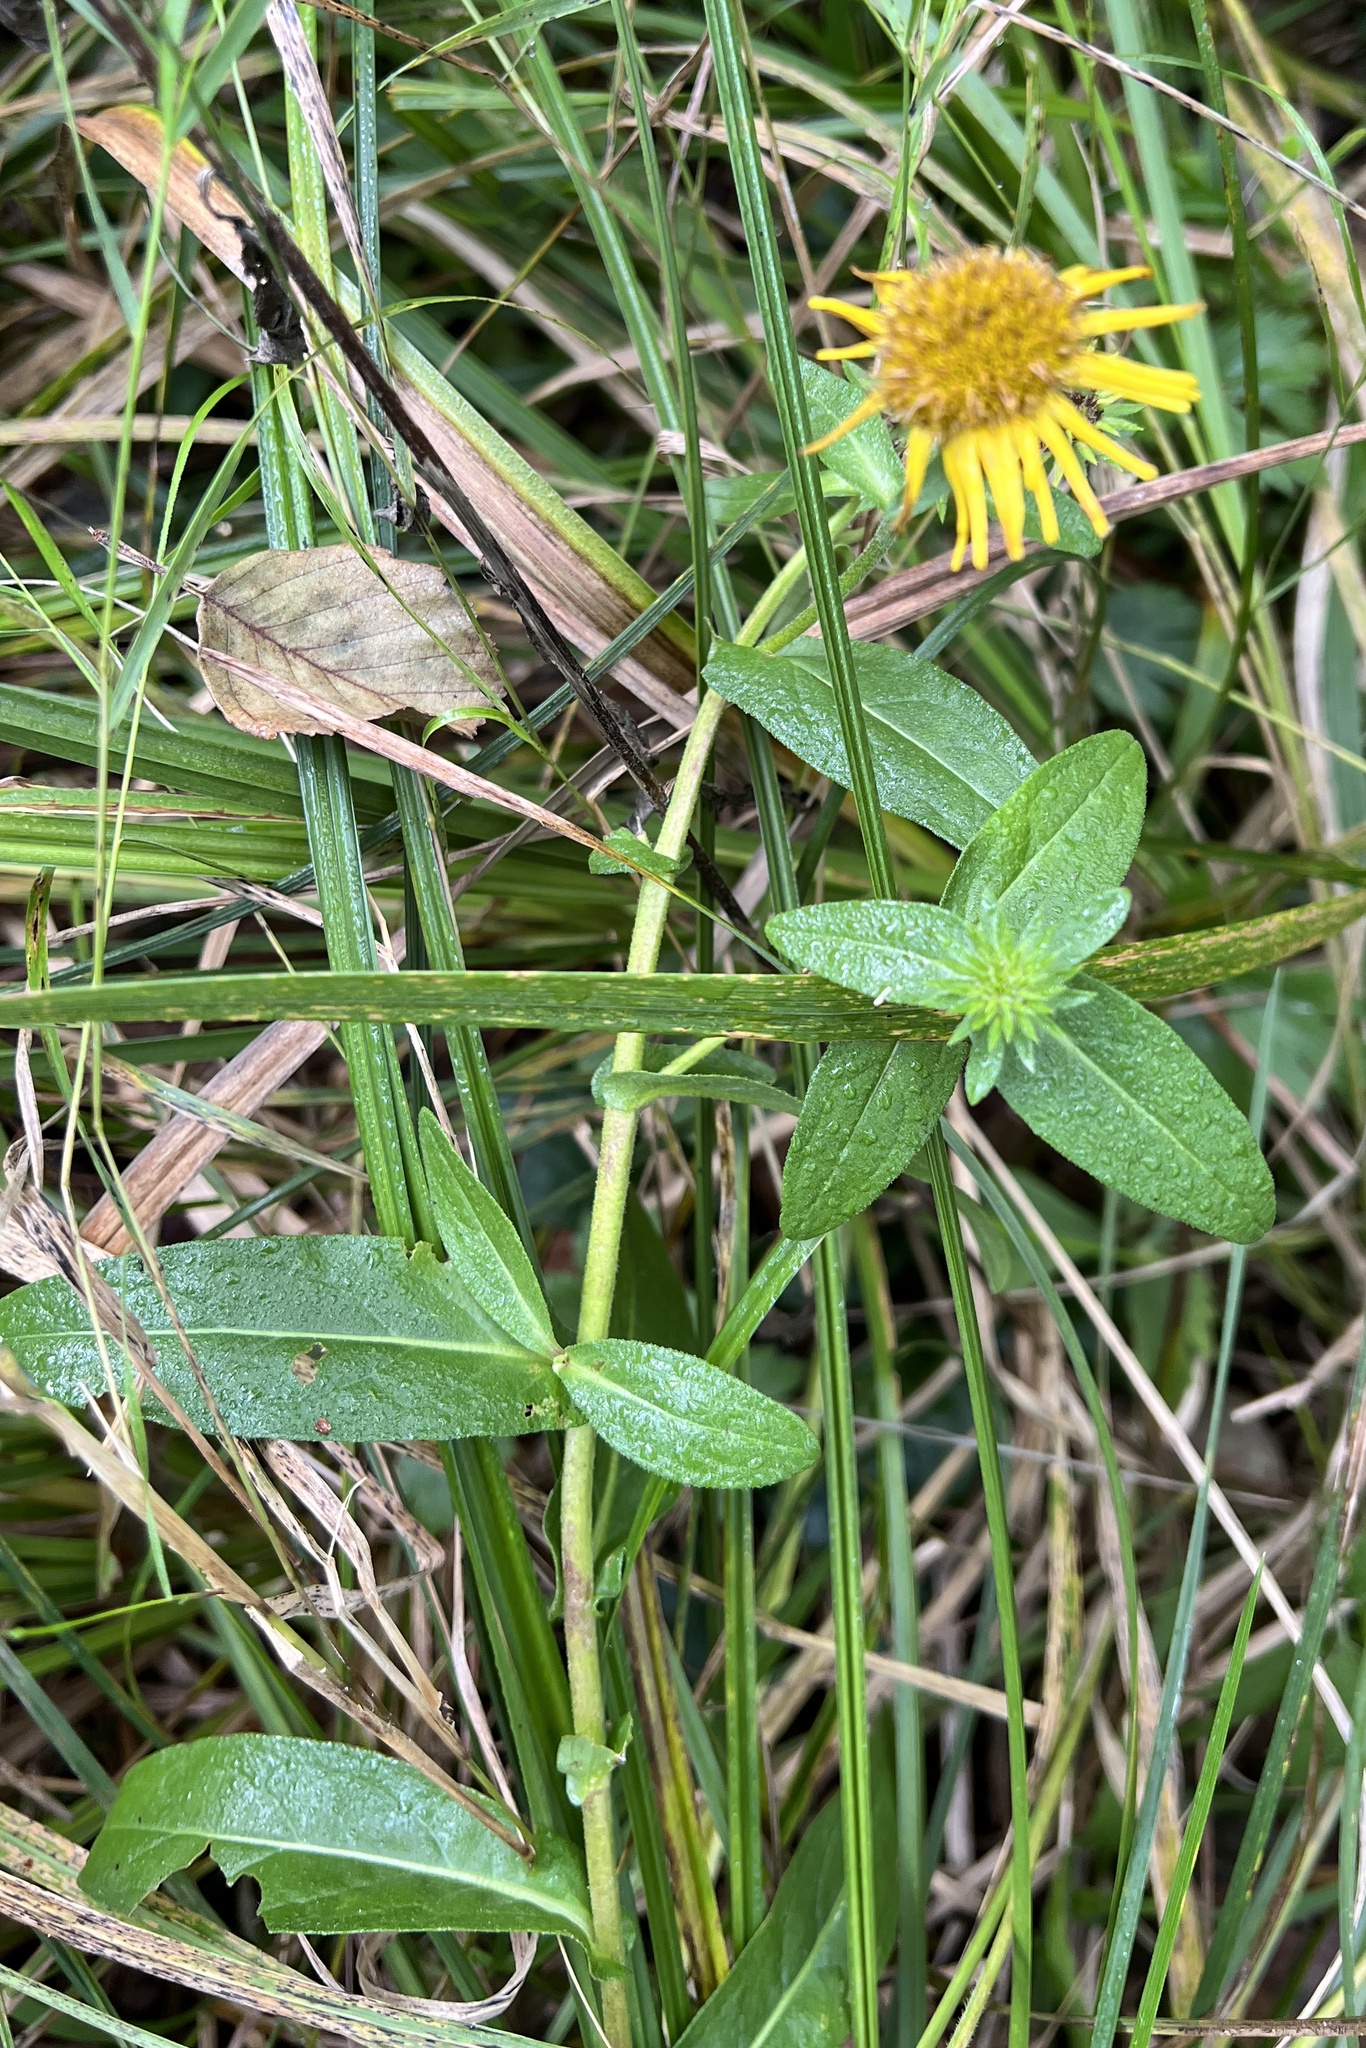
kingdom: Plantae
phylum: Tracheophyta
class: Magnoliopsida
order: Asterales
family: Asteraceae
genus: Pentanema
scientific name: Pentanema britannicum
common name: British elecampane
